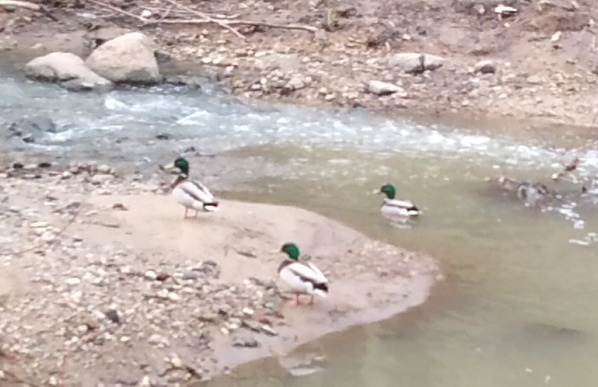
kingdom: Animalia
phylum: Chordata
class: Aves
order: Anseriformes
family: Anatidae
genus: Anas
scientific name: Anas platyrhynchos
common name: Mallard
